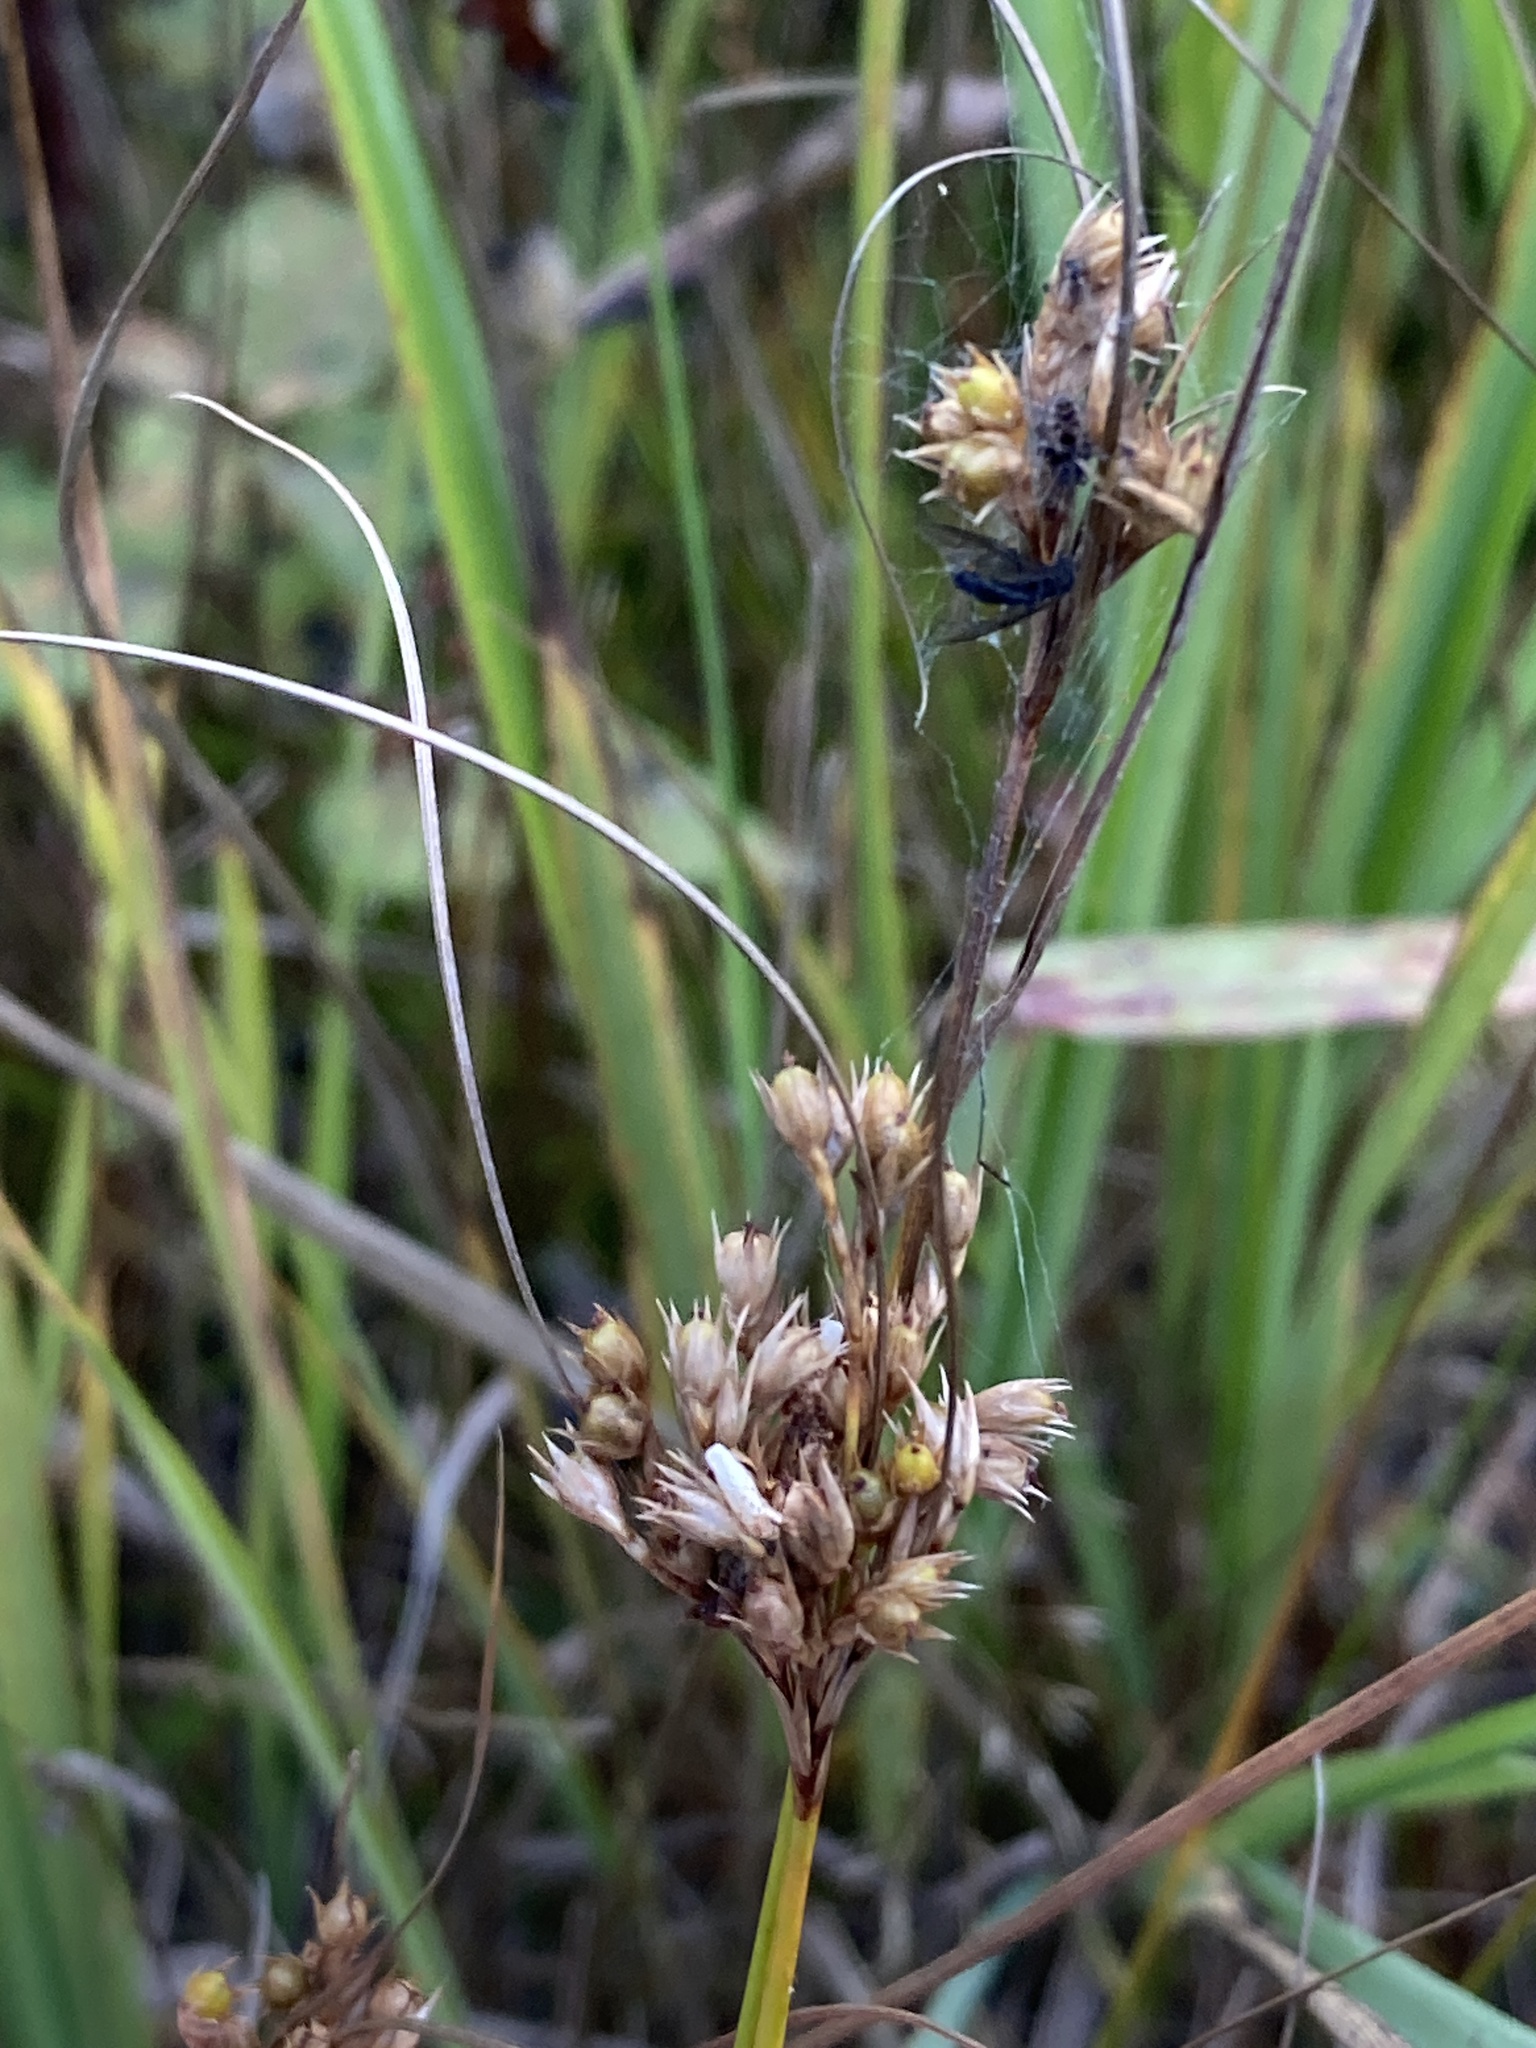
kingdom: Plantae
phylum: Tracheophyta
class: Liliopsida
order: Poales
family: Juncaceae
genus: Juncus
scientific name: Juncus tenuis
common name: Slender rush
